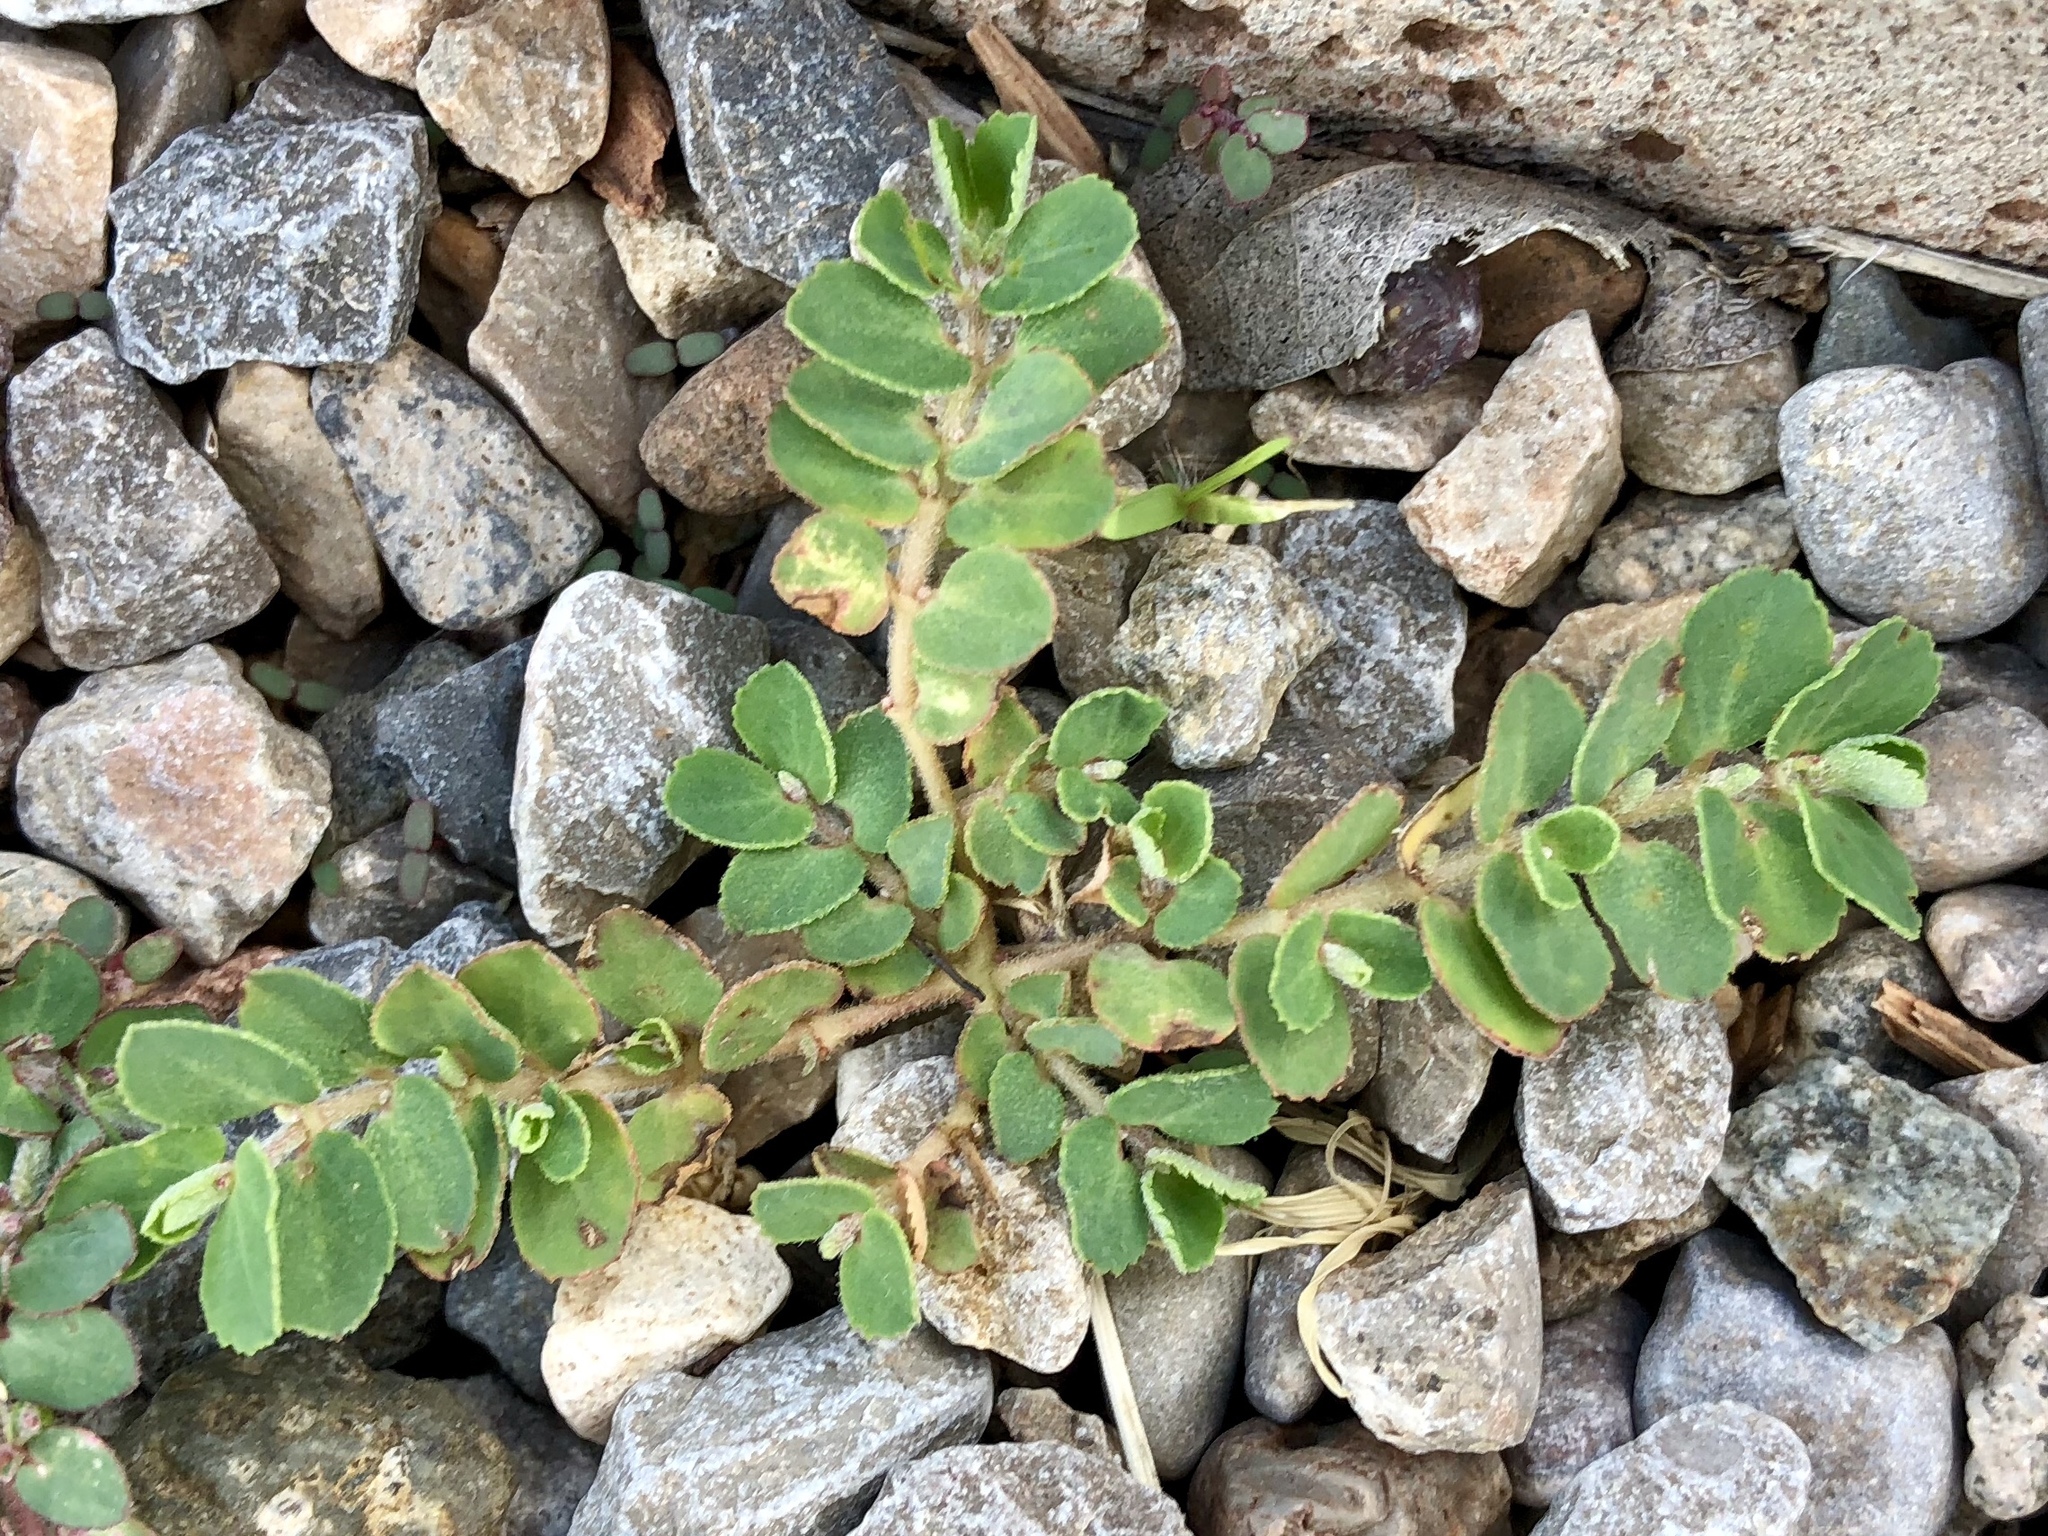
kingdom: Plantae
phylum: Tracheophyta
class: Magnoliopsida
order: Malpighiales
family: Euphorbiaceae
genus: Euphorbia
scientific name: Euphorbia stictospora
